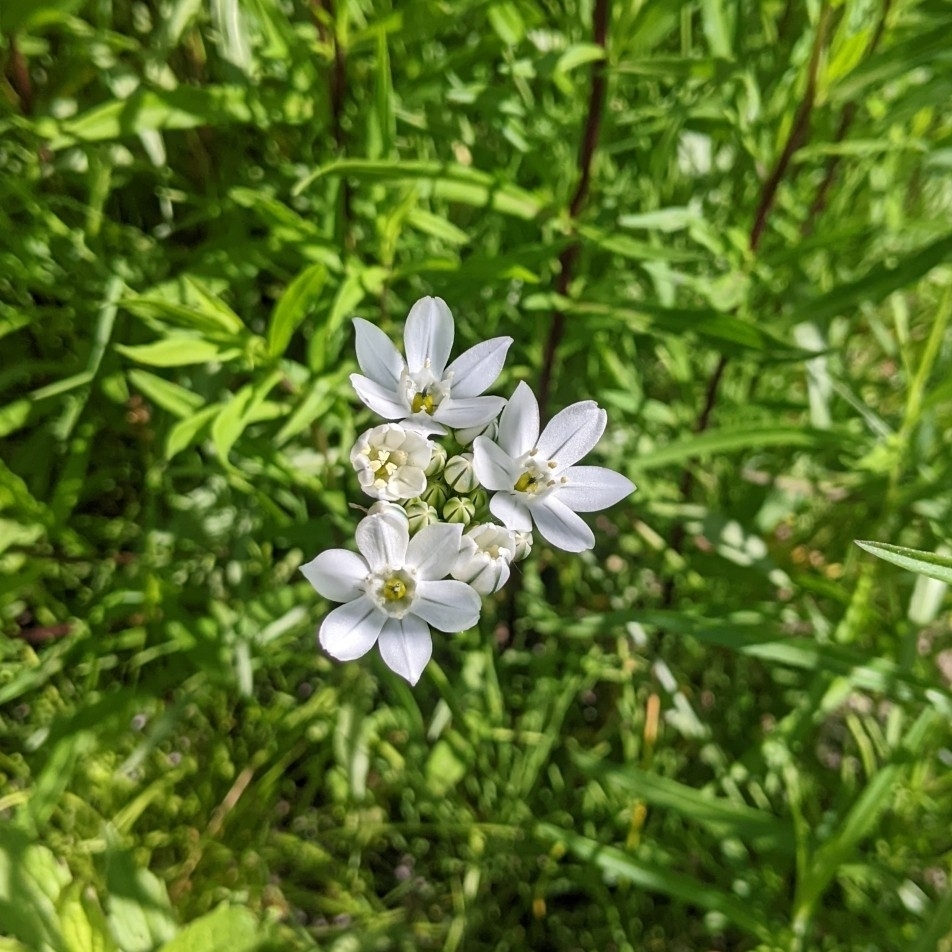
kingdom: Plantae
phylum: Tracheophyta
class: Liliopsida
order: Asparagales
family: Asparagaceae
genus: Triteleia
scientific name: Triteleia hyacinthina
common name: White brodiaea
